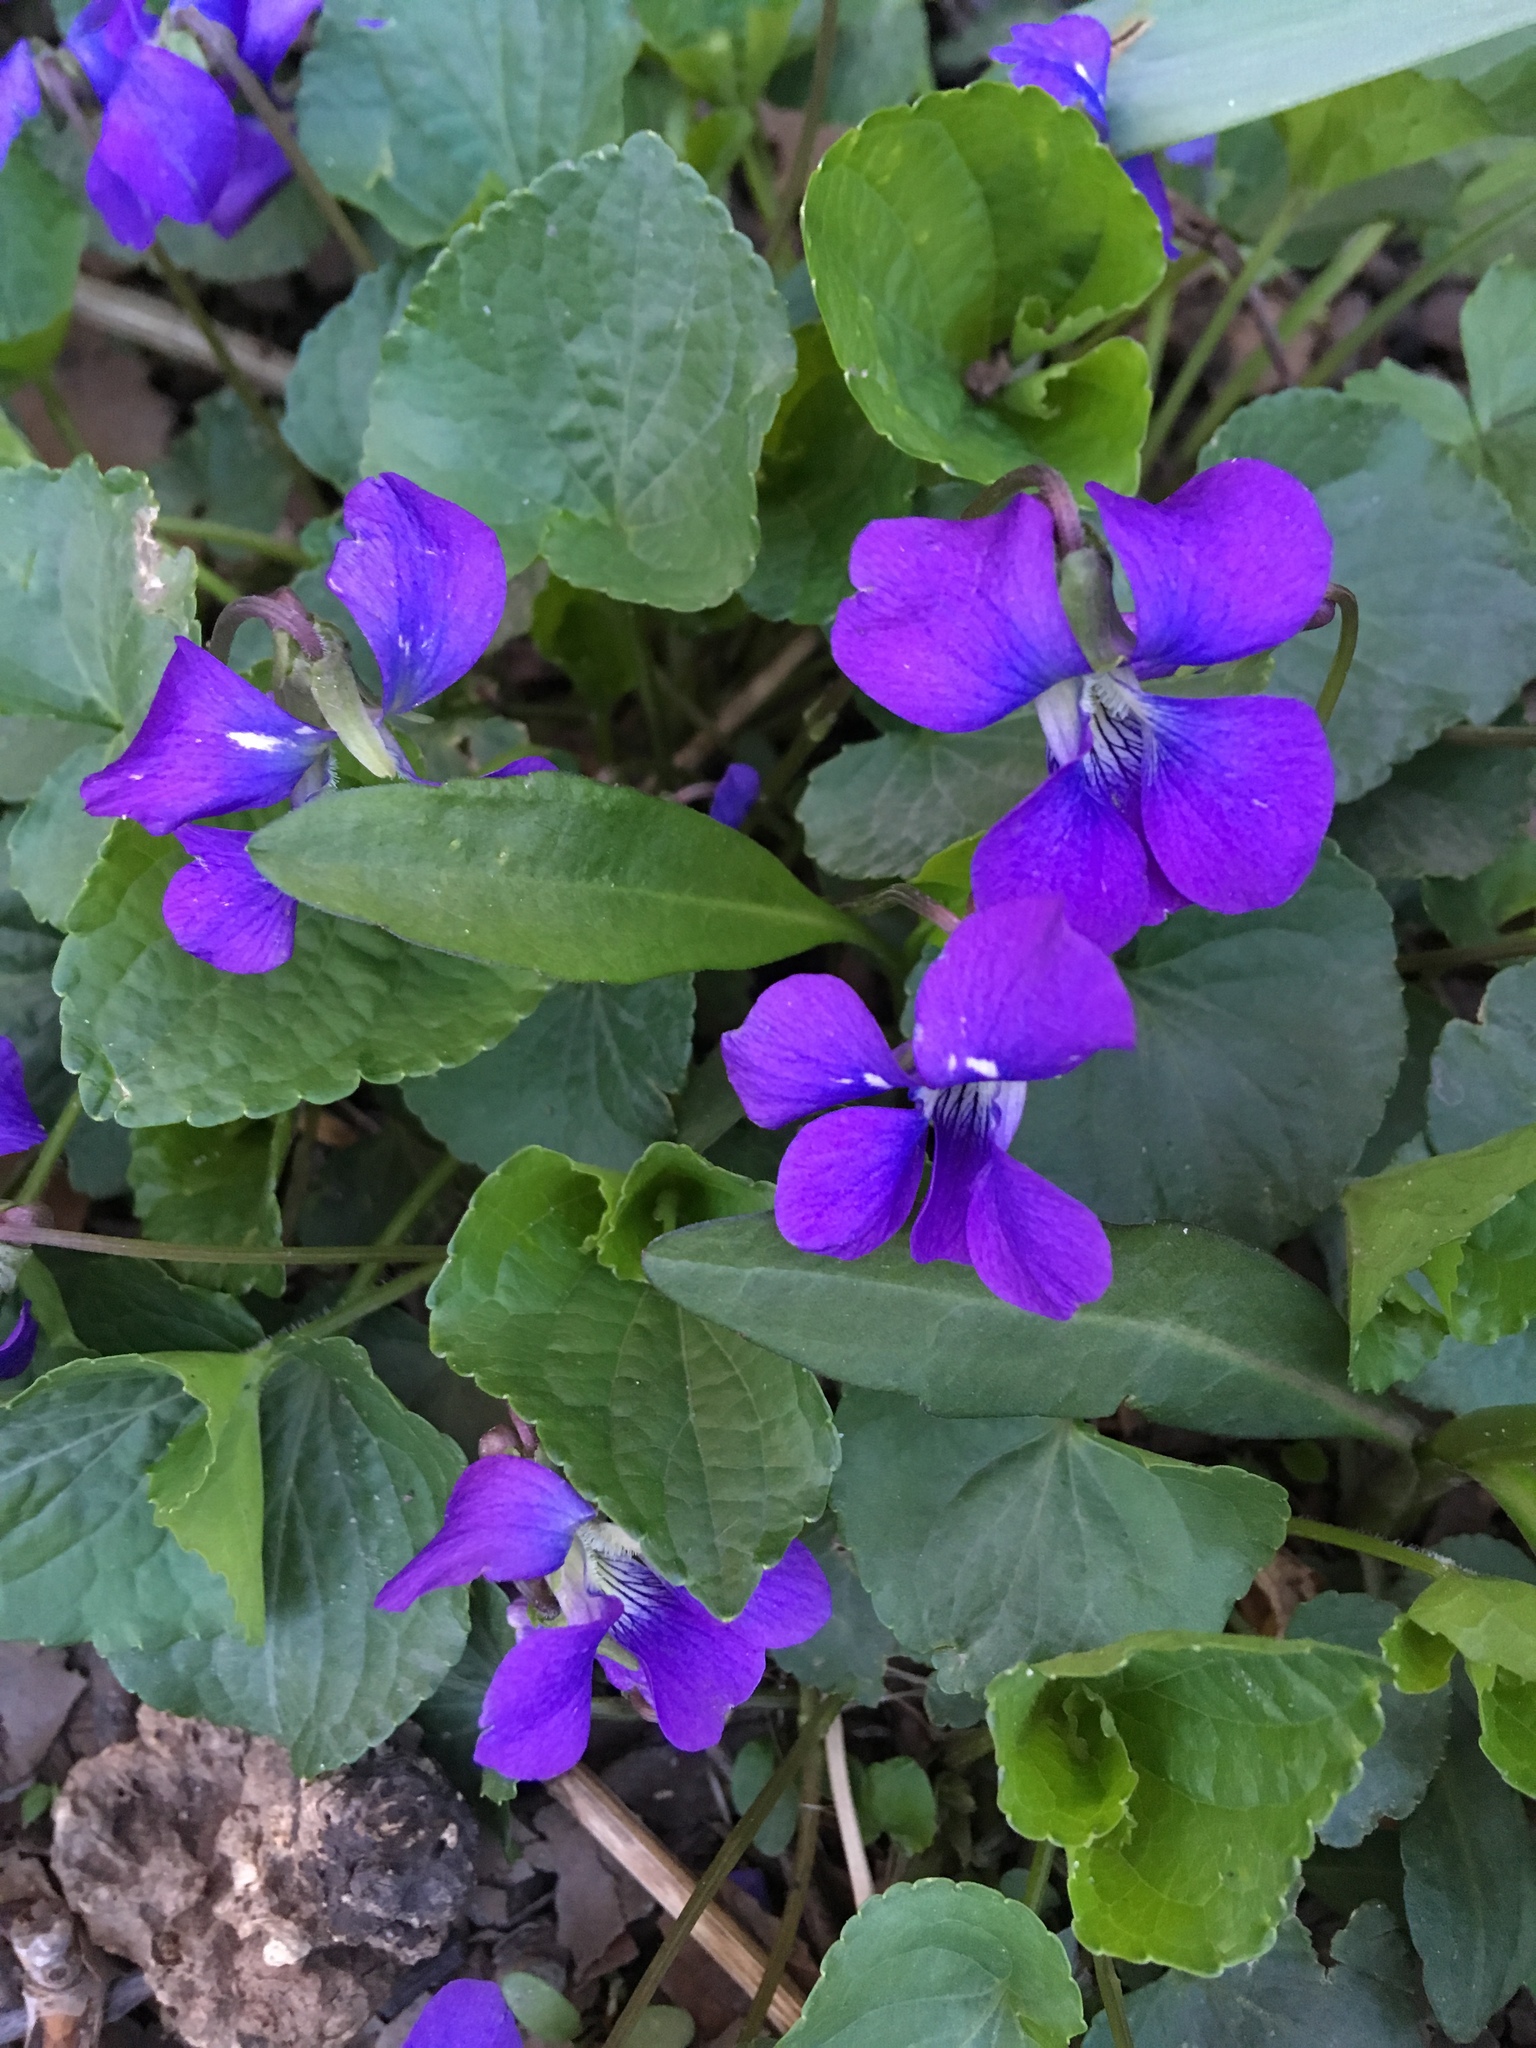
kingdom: Plantae
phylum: Tracheophyta
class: Magnoliopsida
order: Malpighiales
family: Violaceae
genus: Viola
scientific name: Viola sororia
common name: Dooryard violet
